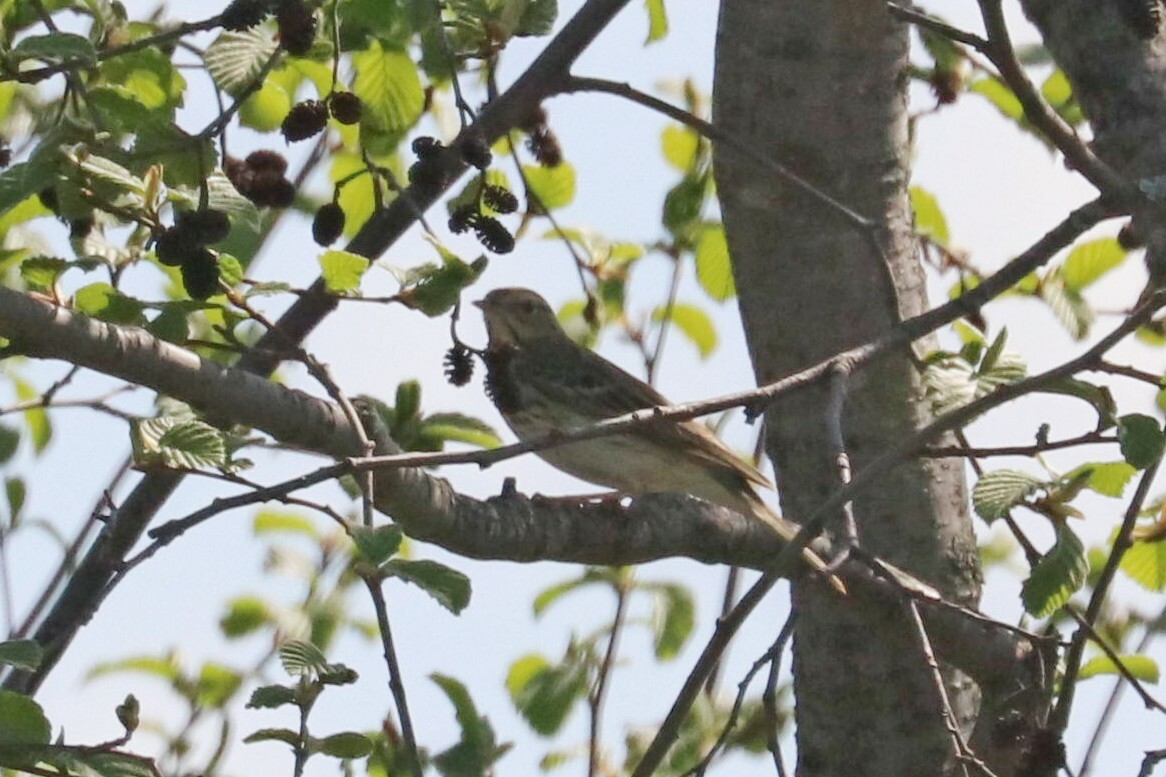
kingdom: Animalia
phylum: Chordata
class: Aves
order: Passeriformes
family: Motacillidae
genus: Anthus
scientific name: Anthus trivialis
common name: Tree pipit
